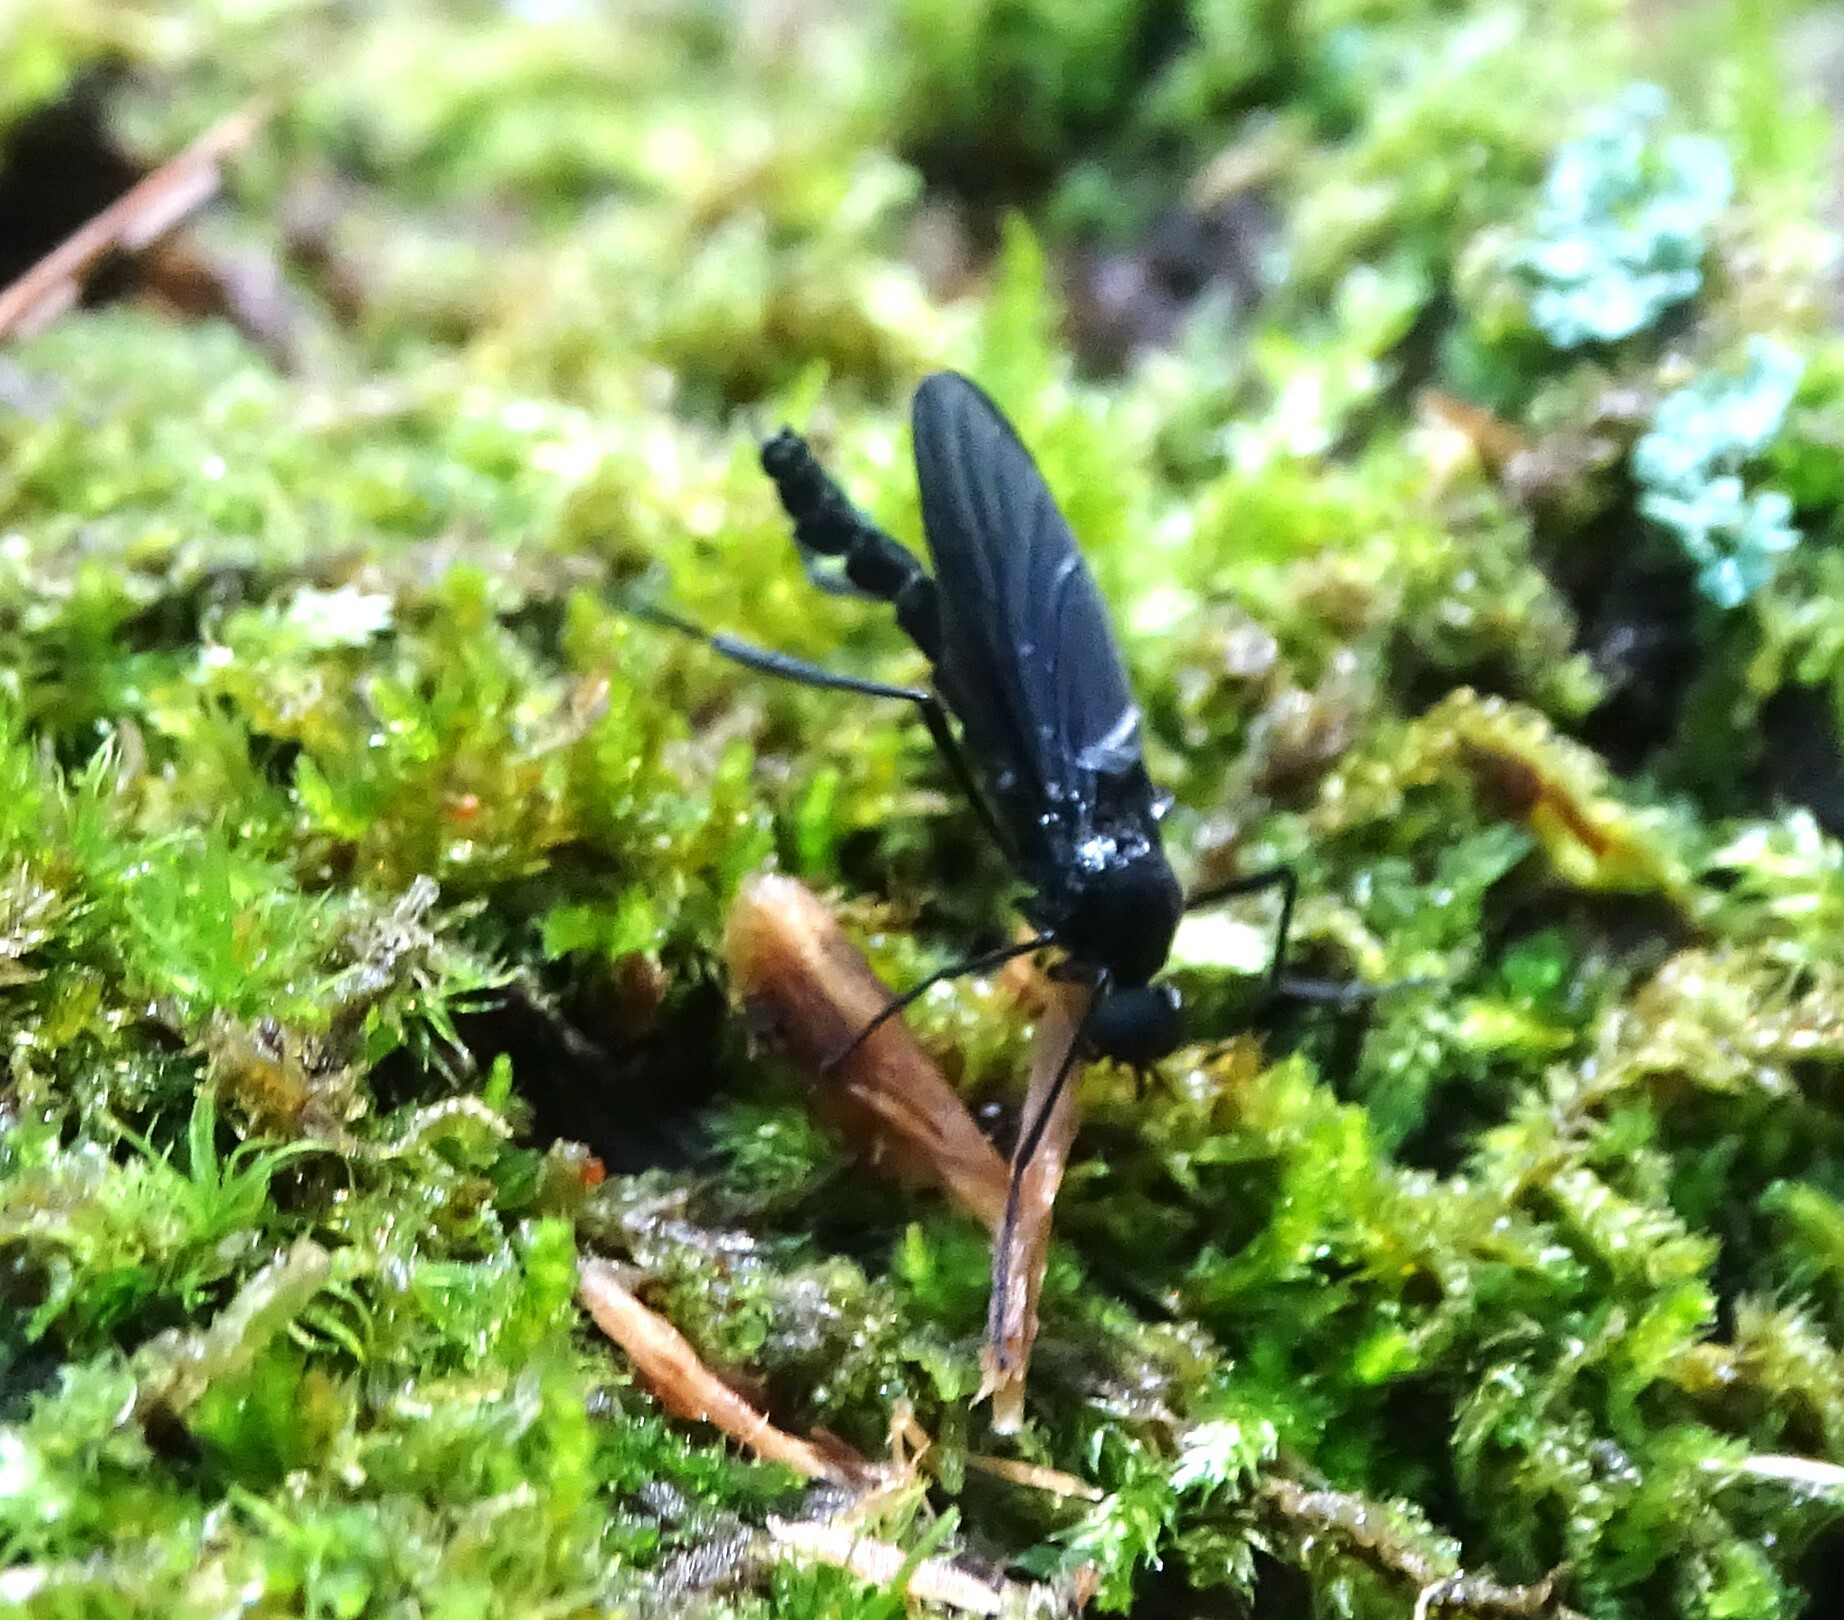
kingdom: Animalia
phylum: Arthropoda
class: Insecta
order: Diptera
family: Bibionidae
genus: Penthetria
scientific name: Penthetria heteroptera
